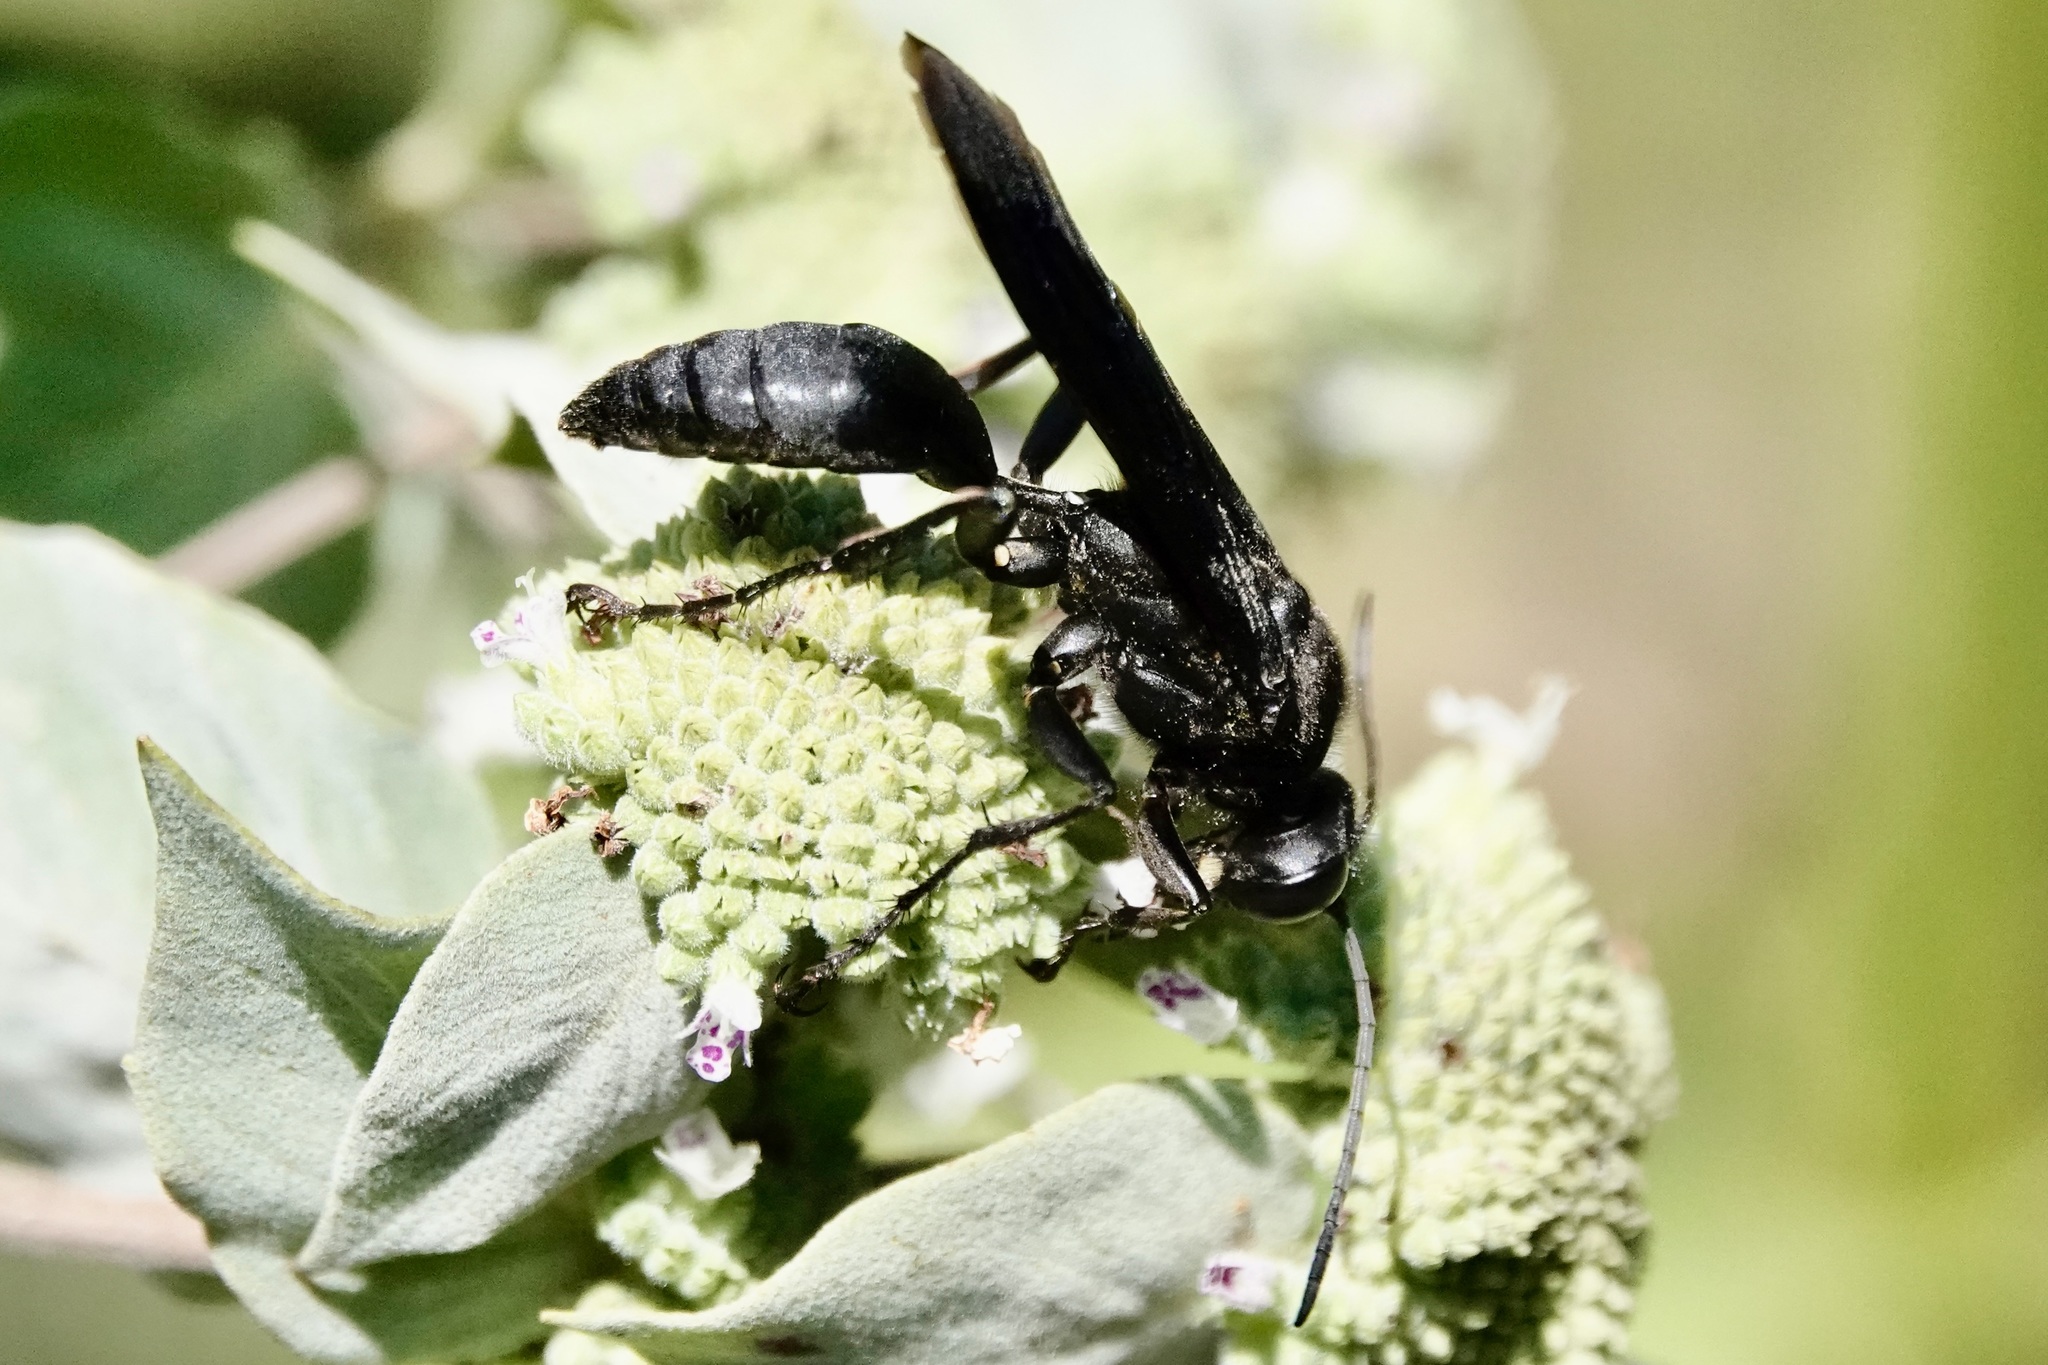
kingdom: Animalia
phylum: Arthropoda
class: Insecta
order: Hymenoptera
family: Sphecidae
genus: Sphex
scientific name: Sphex pensylvanicus
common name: Great black digger wasp
